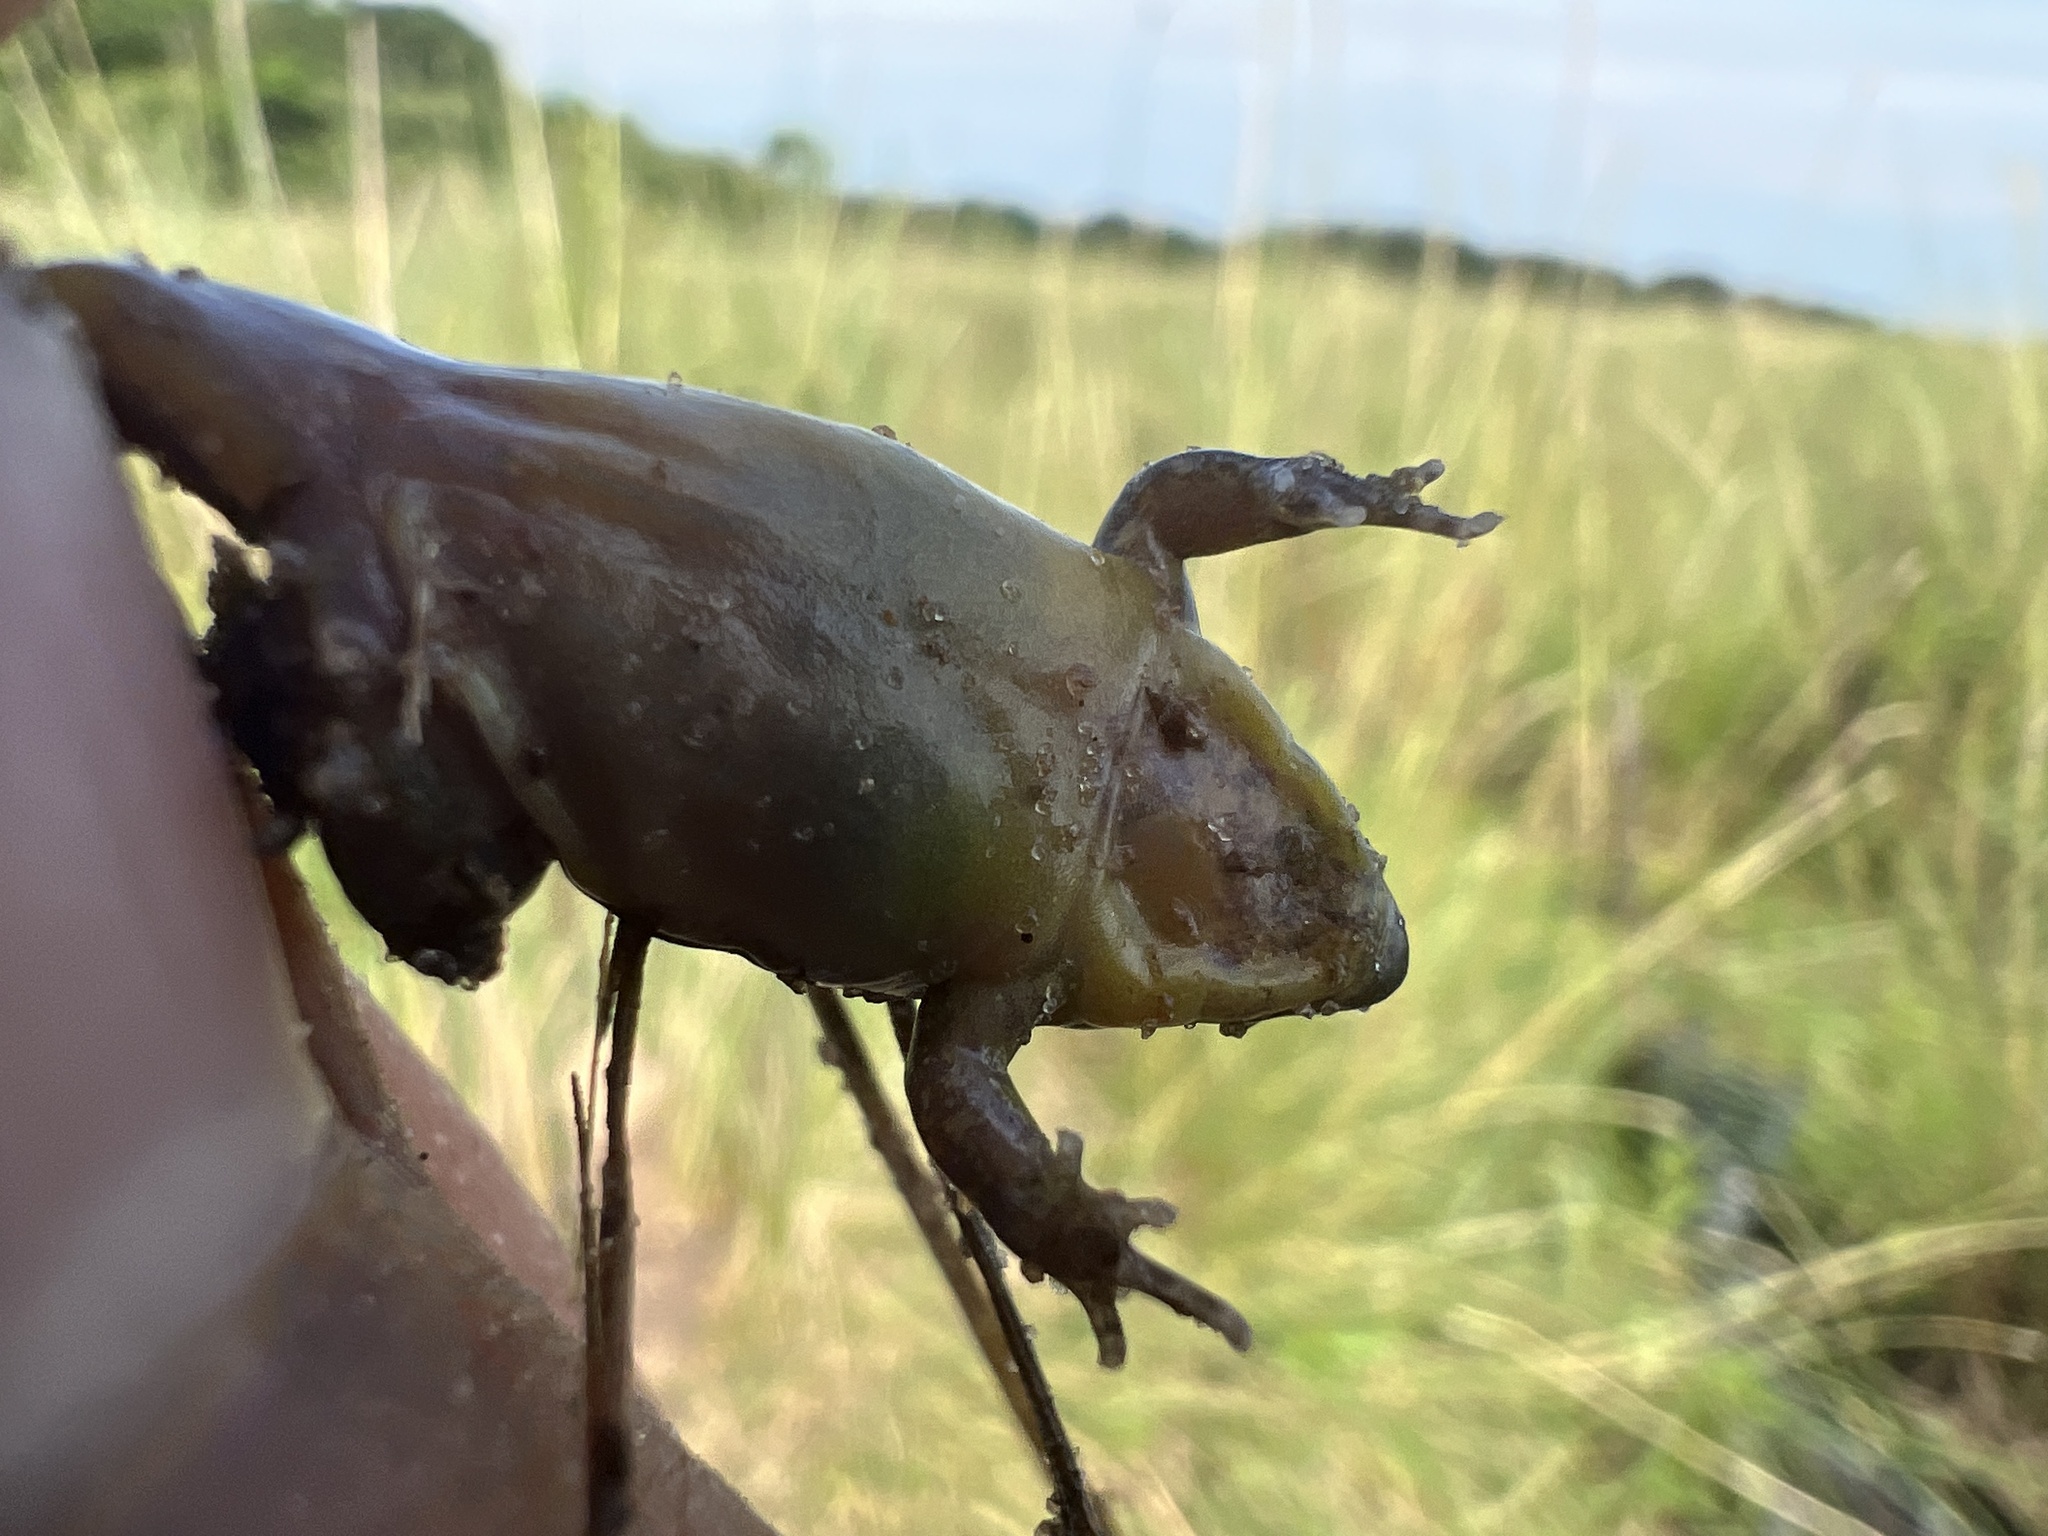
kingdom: Animalia
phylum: Chordata
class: Amphibia
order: Anura
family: Microhylidae
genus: Elachistocleis
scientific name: Elachistocleis bicolor
